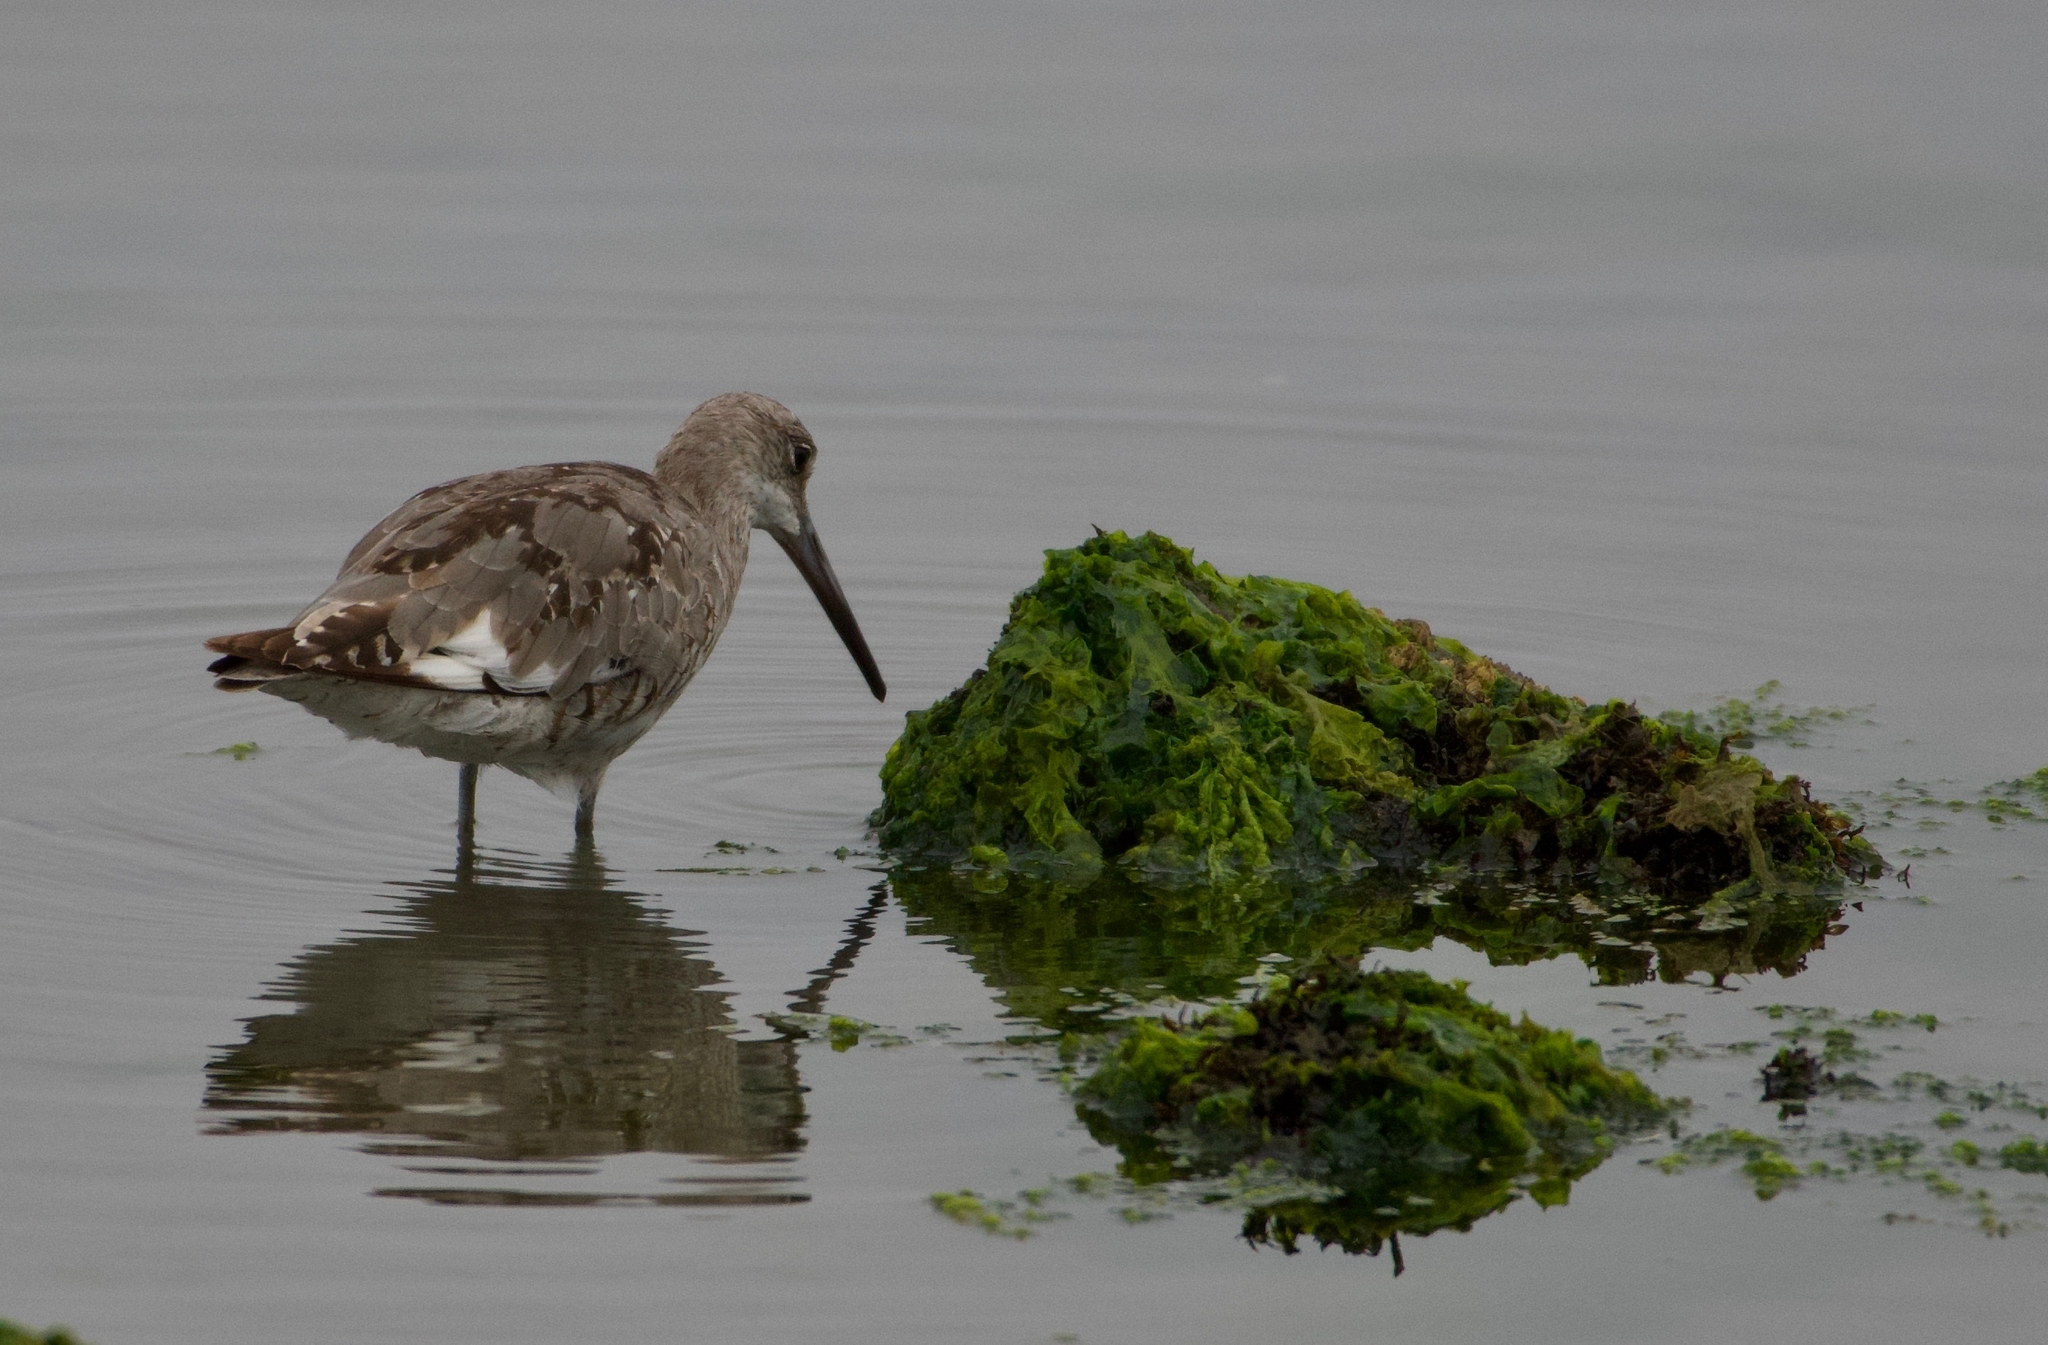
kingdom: Animalia
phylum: Chordata
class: Aves
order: Charadriiformes
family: Scolopacidae
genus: Tringa
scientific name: Tringa semipalmata
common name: Willet
